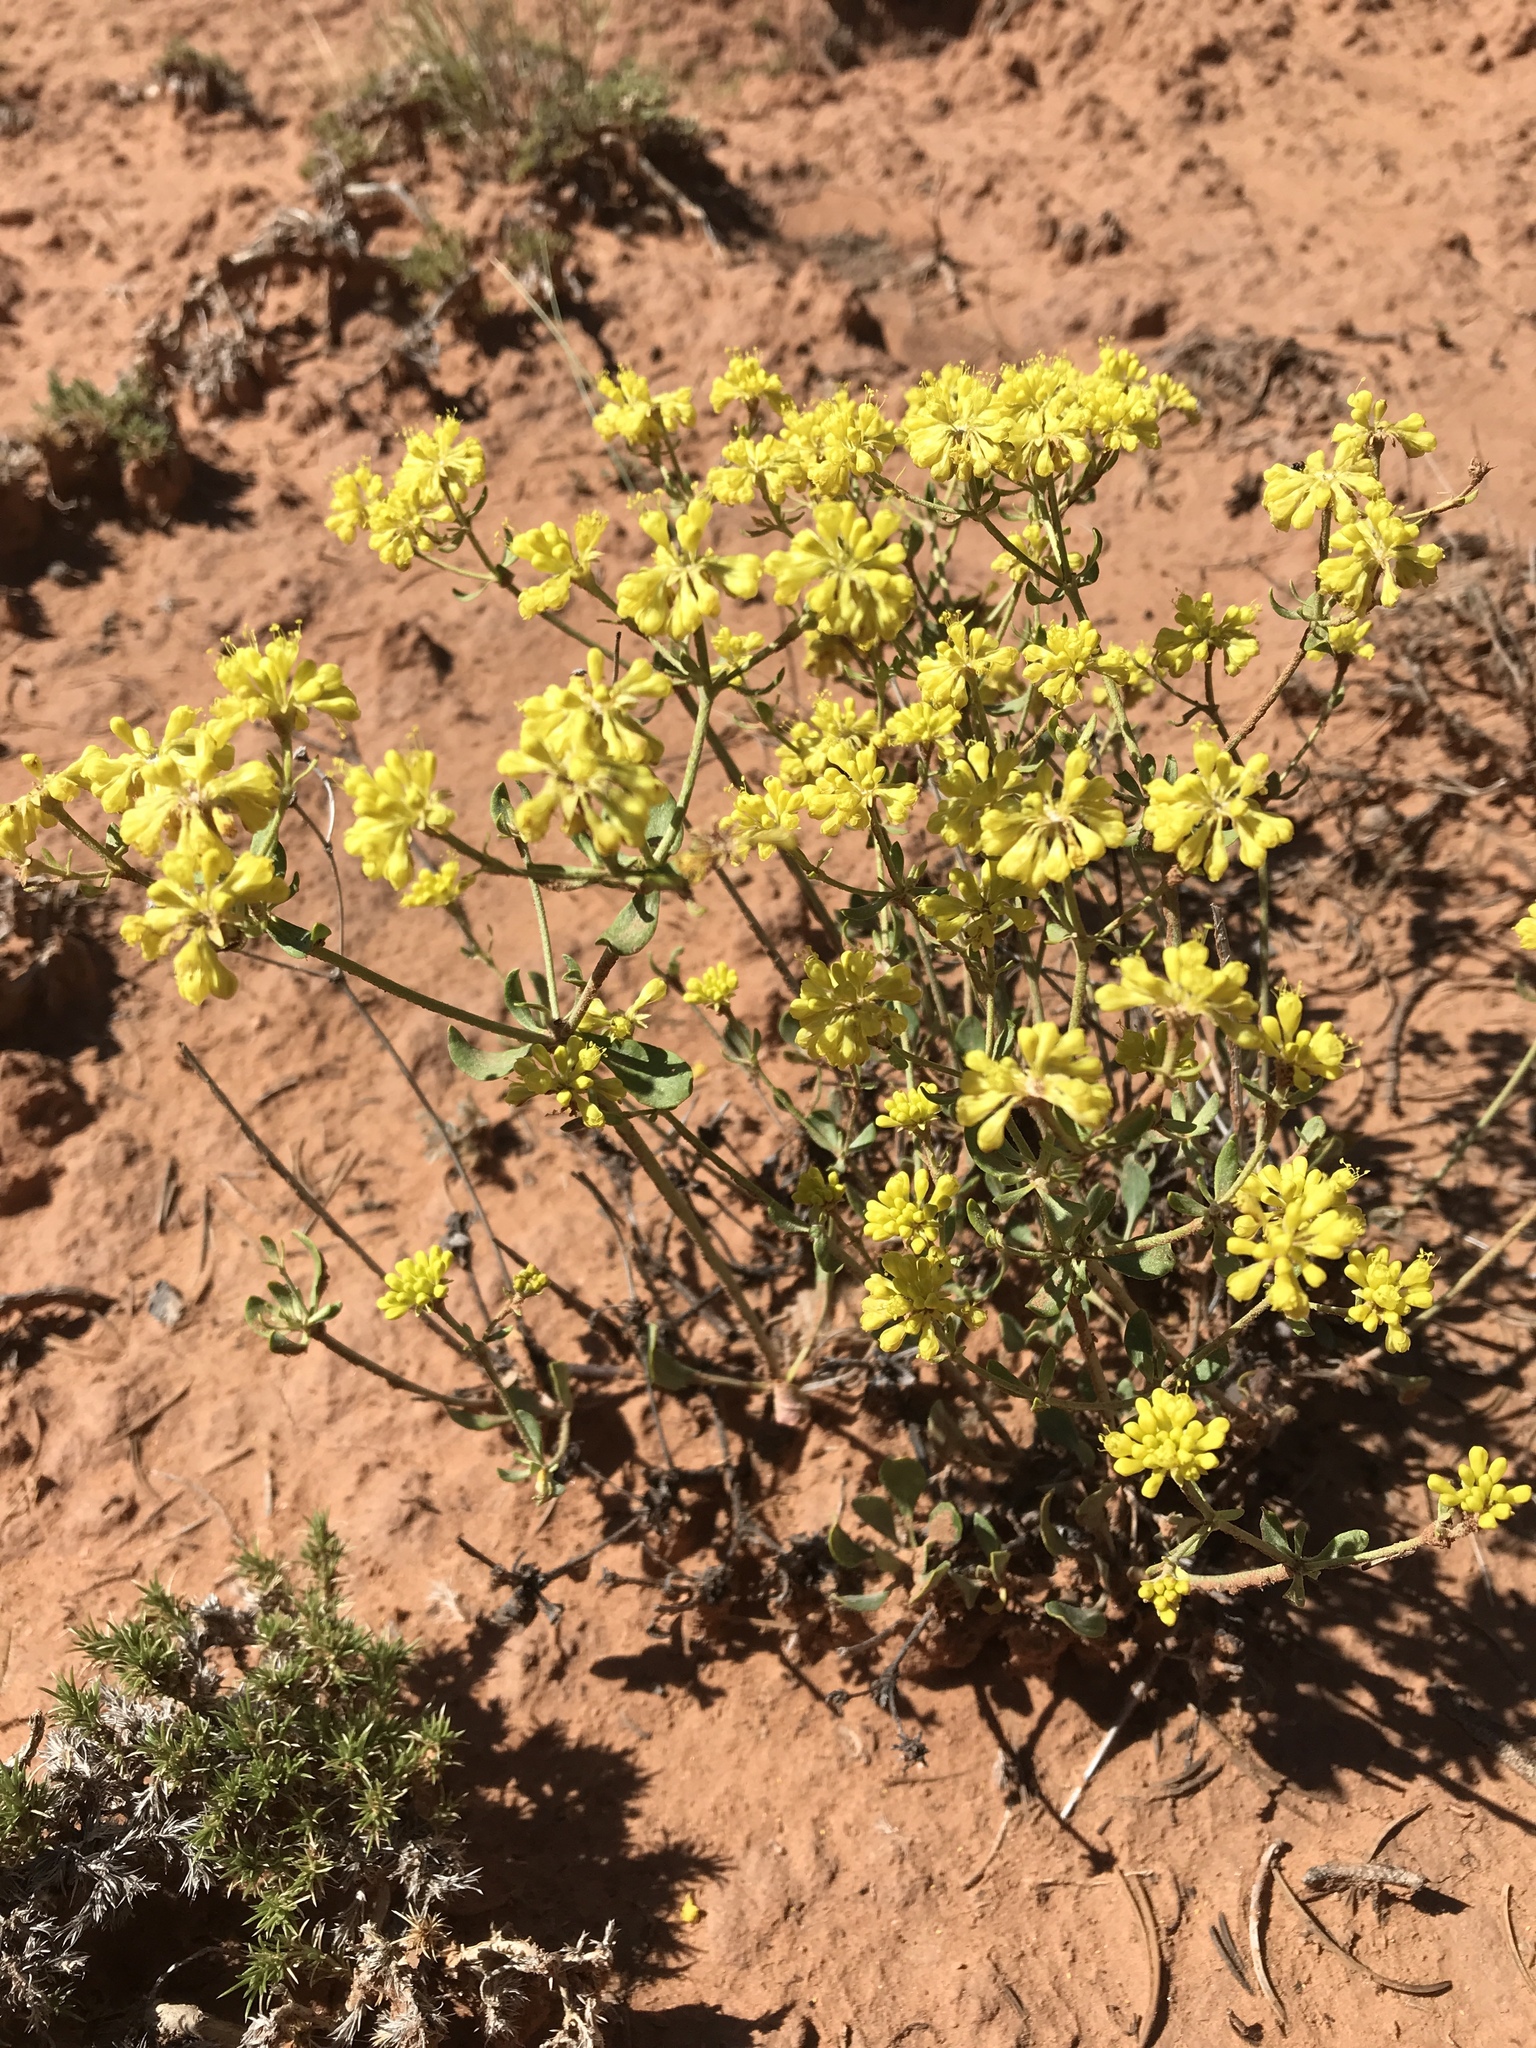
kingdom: Plantae
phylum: Tracheophyta
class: Magnoliopsida
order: Caryophyllales
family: Polygonaceae
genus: Eriogonum
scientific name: Eriogonum umbellatum
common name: Sulfur-buckwheat
